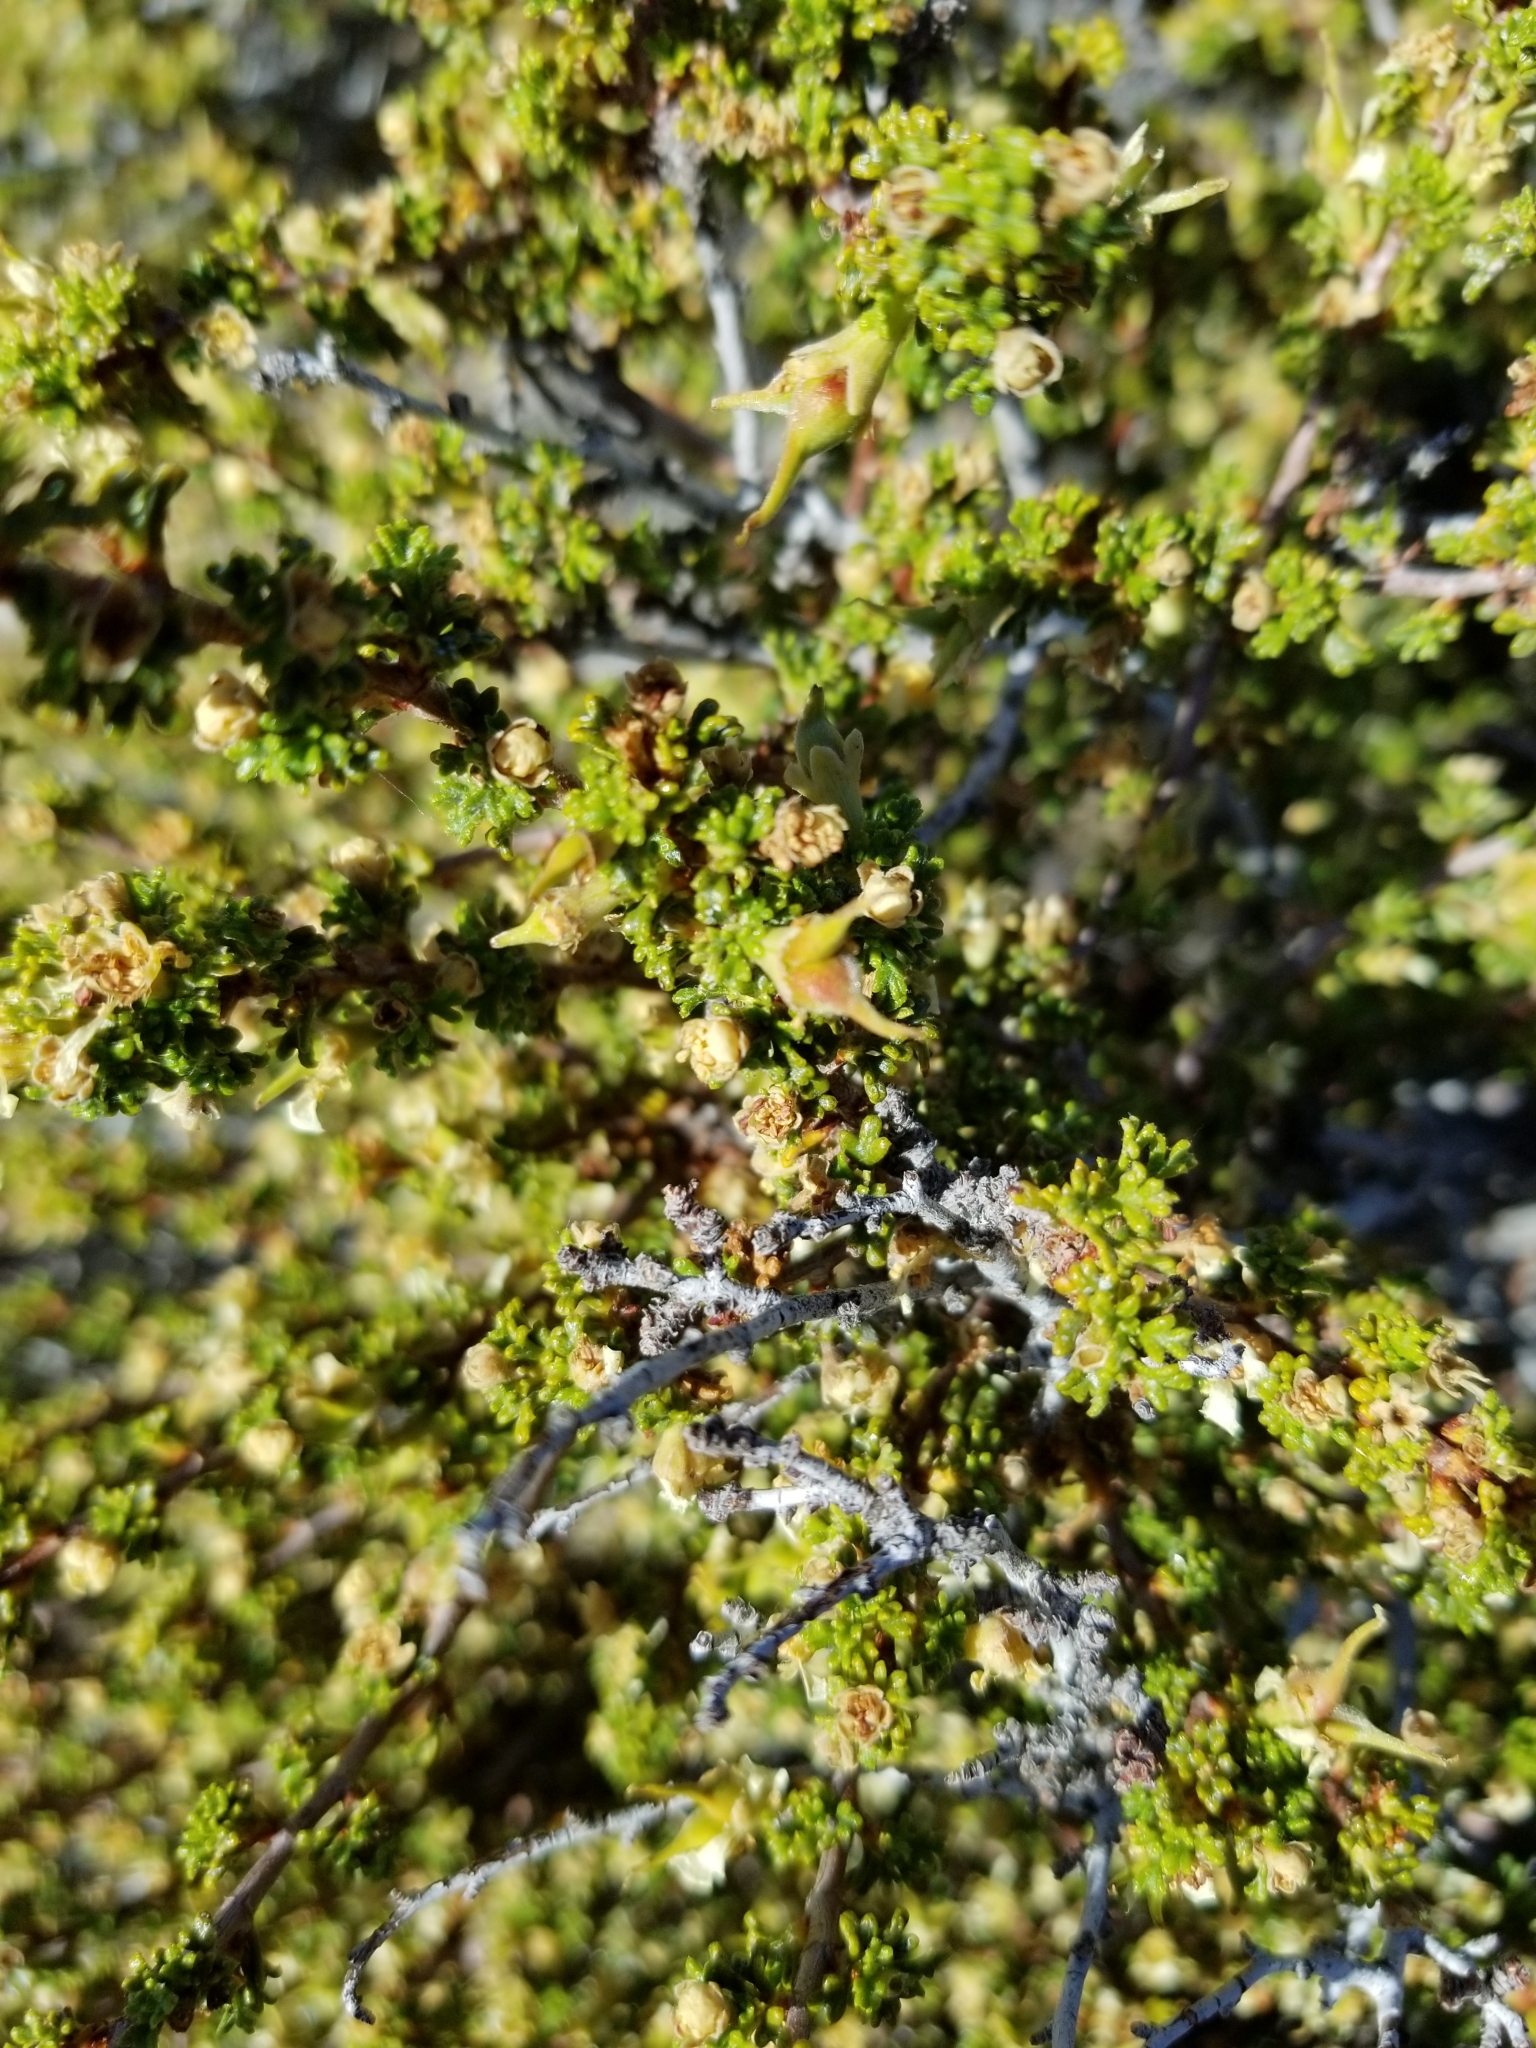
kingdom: Plantae
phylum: Tracheophyta
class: Magnoliopsida
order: Rosales
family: Rosaceae
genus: Purshia
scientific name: Purshia glandulosa
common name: Desert bitterbrush
